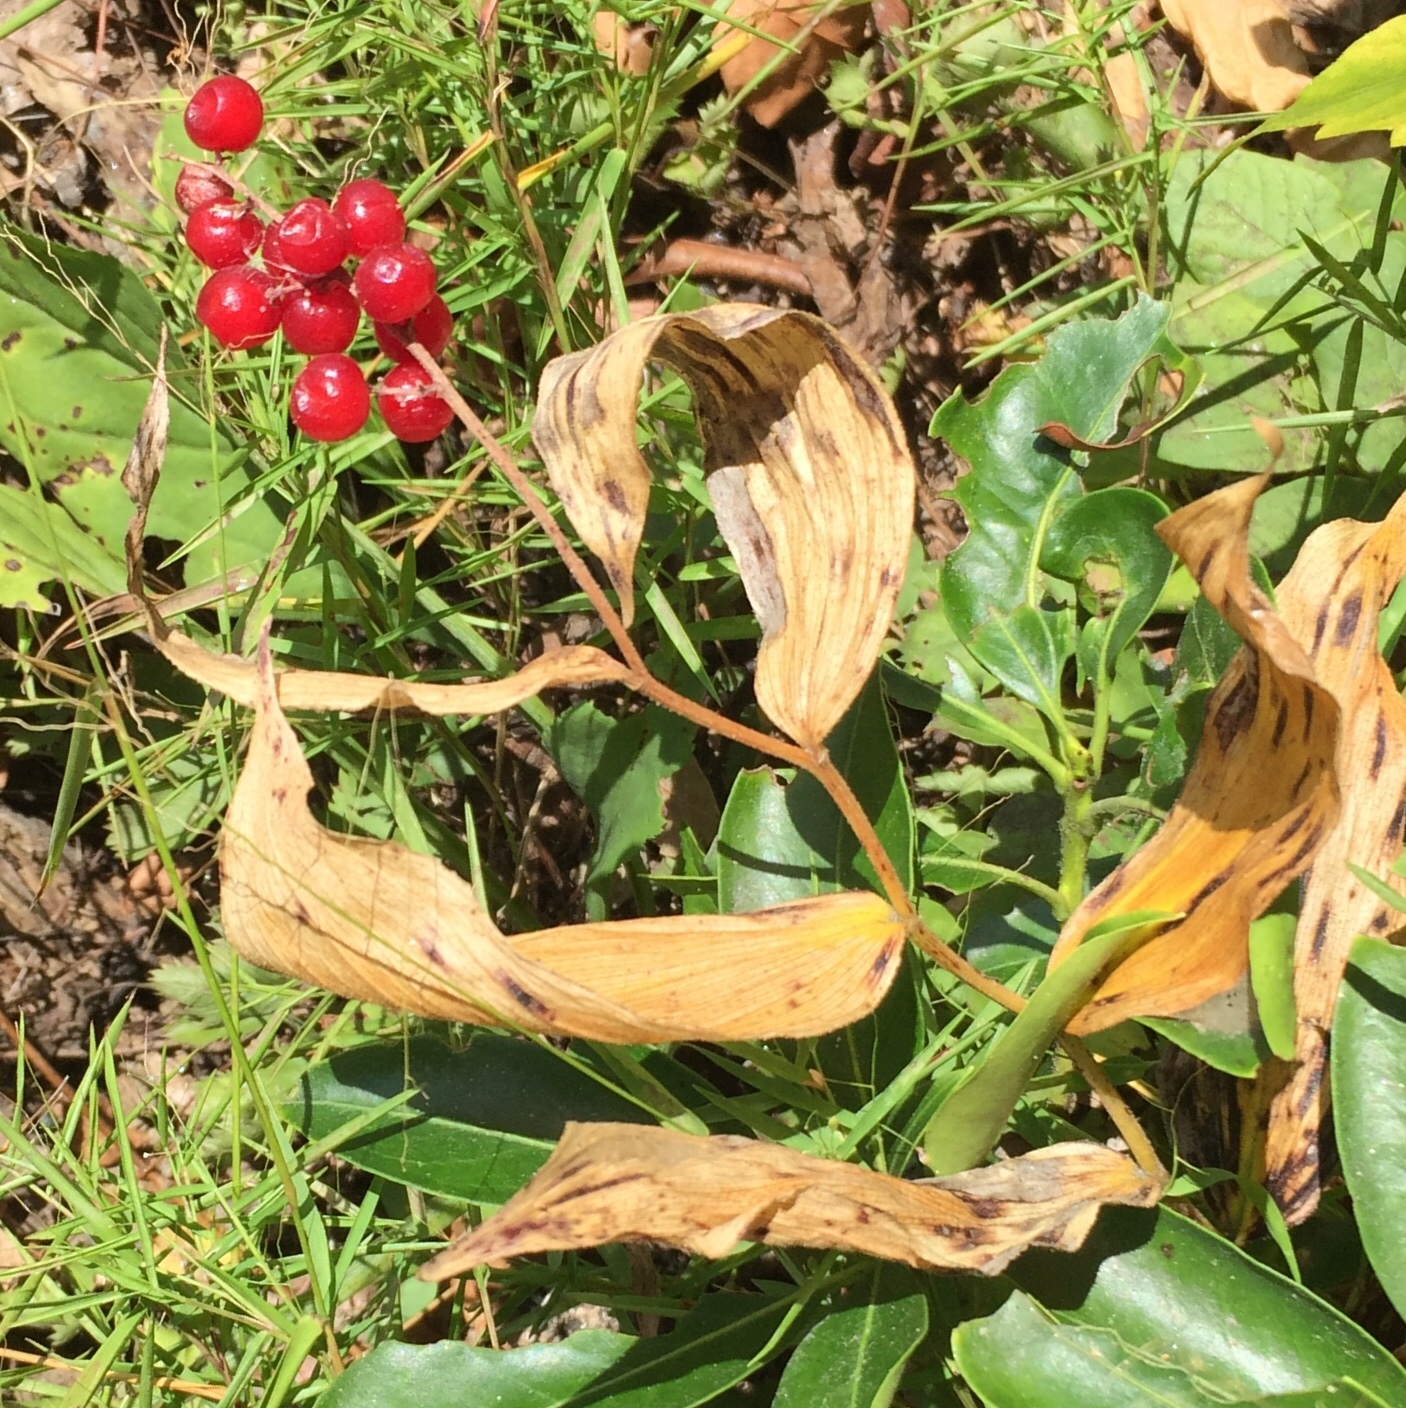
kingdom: Plantae
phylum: Tracheophyta
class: Liliopsida
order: Asparagales
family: Asparagaceae
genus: Maianthemum
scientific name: Maianthemum racemosum
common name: False spikenard
